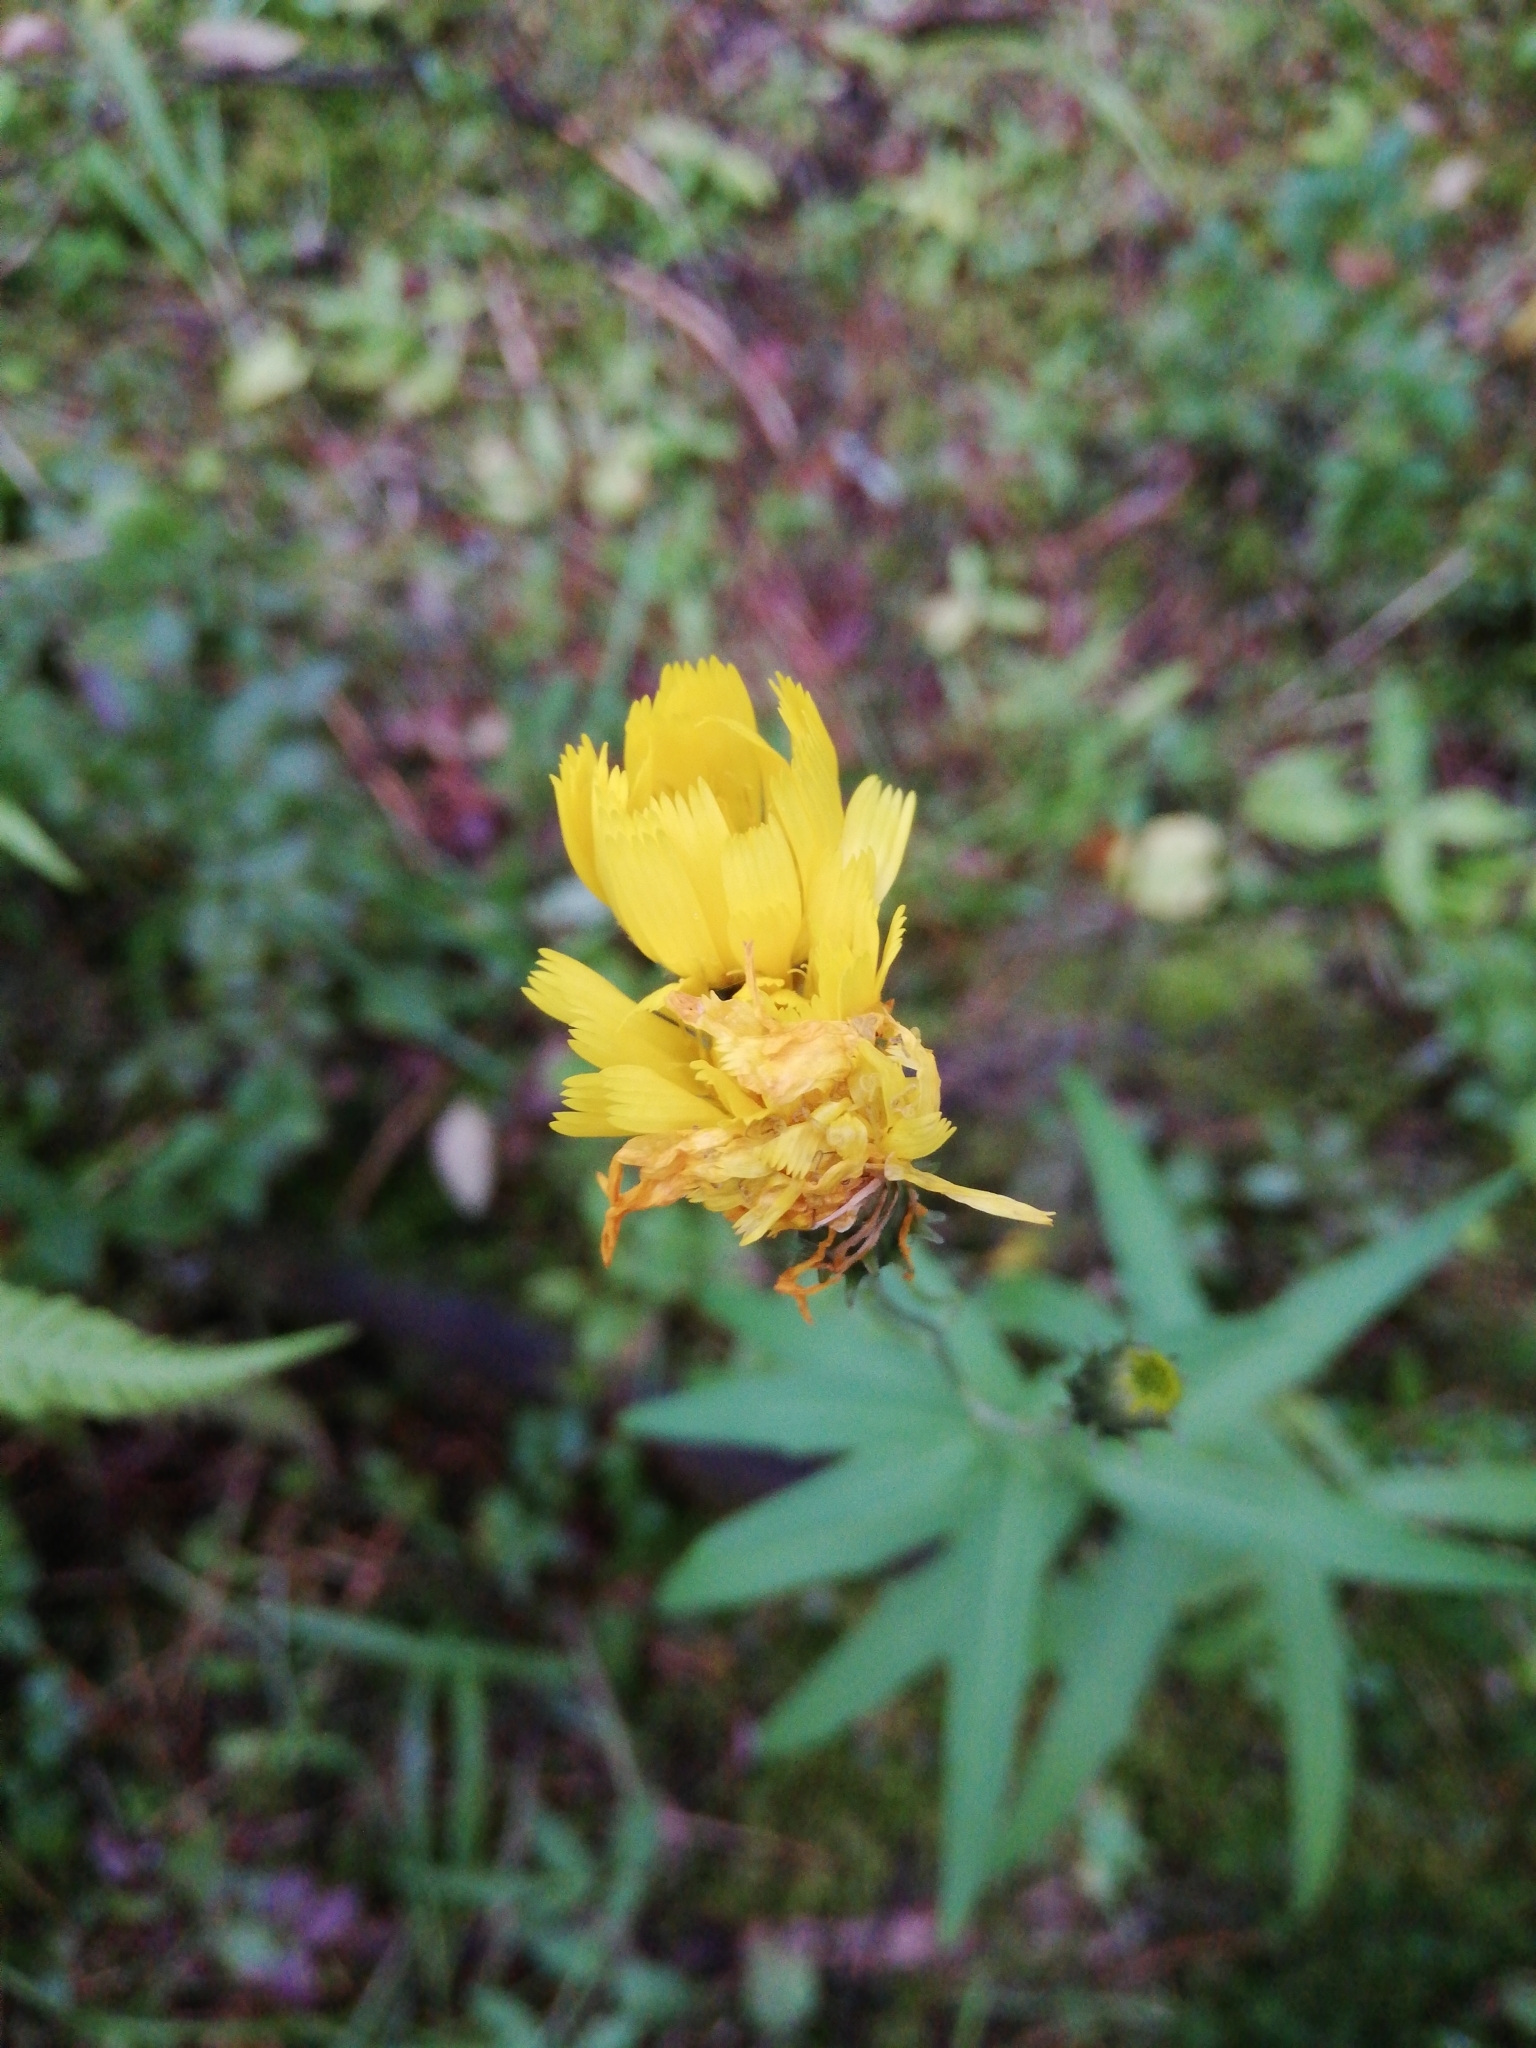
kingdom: Plantae
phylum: Tracheophyta
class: Magnoliopsida
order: Asterales
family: Asteraceae
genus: Hieracium
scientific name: Hieracium umbellatum
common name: Northern hawkweed
